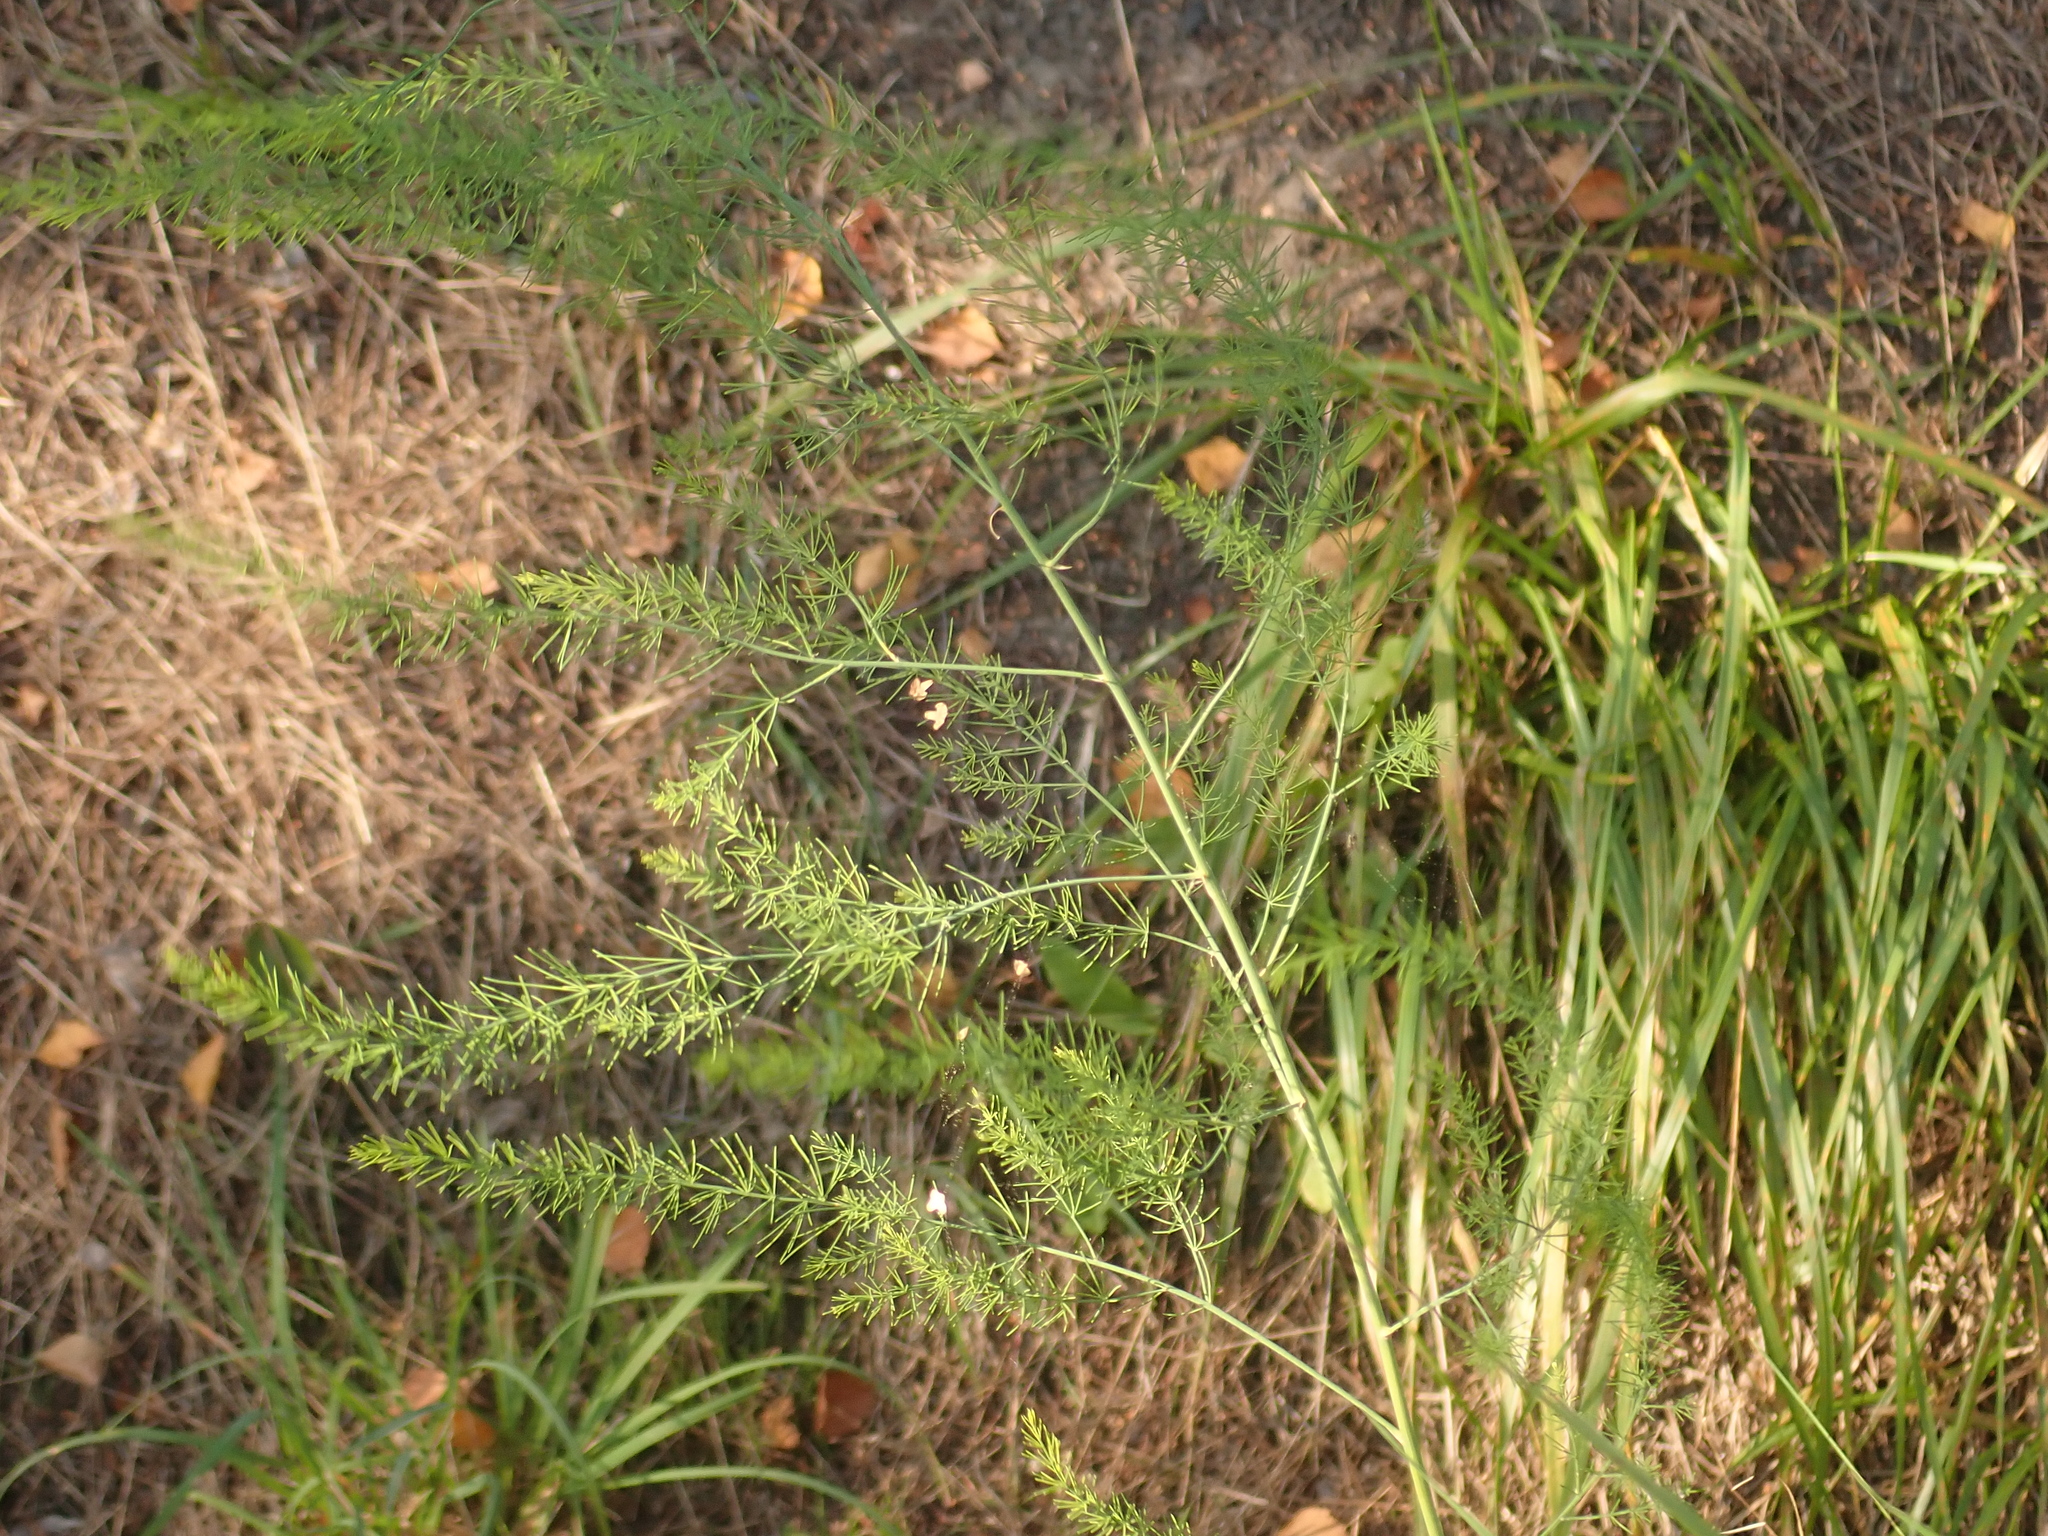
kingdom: Plantae
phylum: Tracheophyta
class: Liliopsida
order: Asparagales
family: Asparagaceae
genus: Asparagus
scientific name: Asparagus officinalis
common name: Garden asparagus
